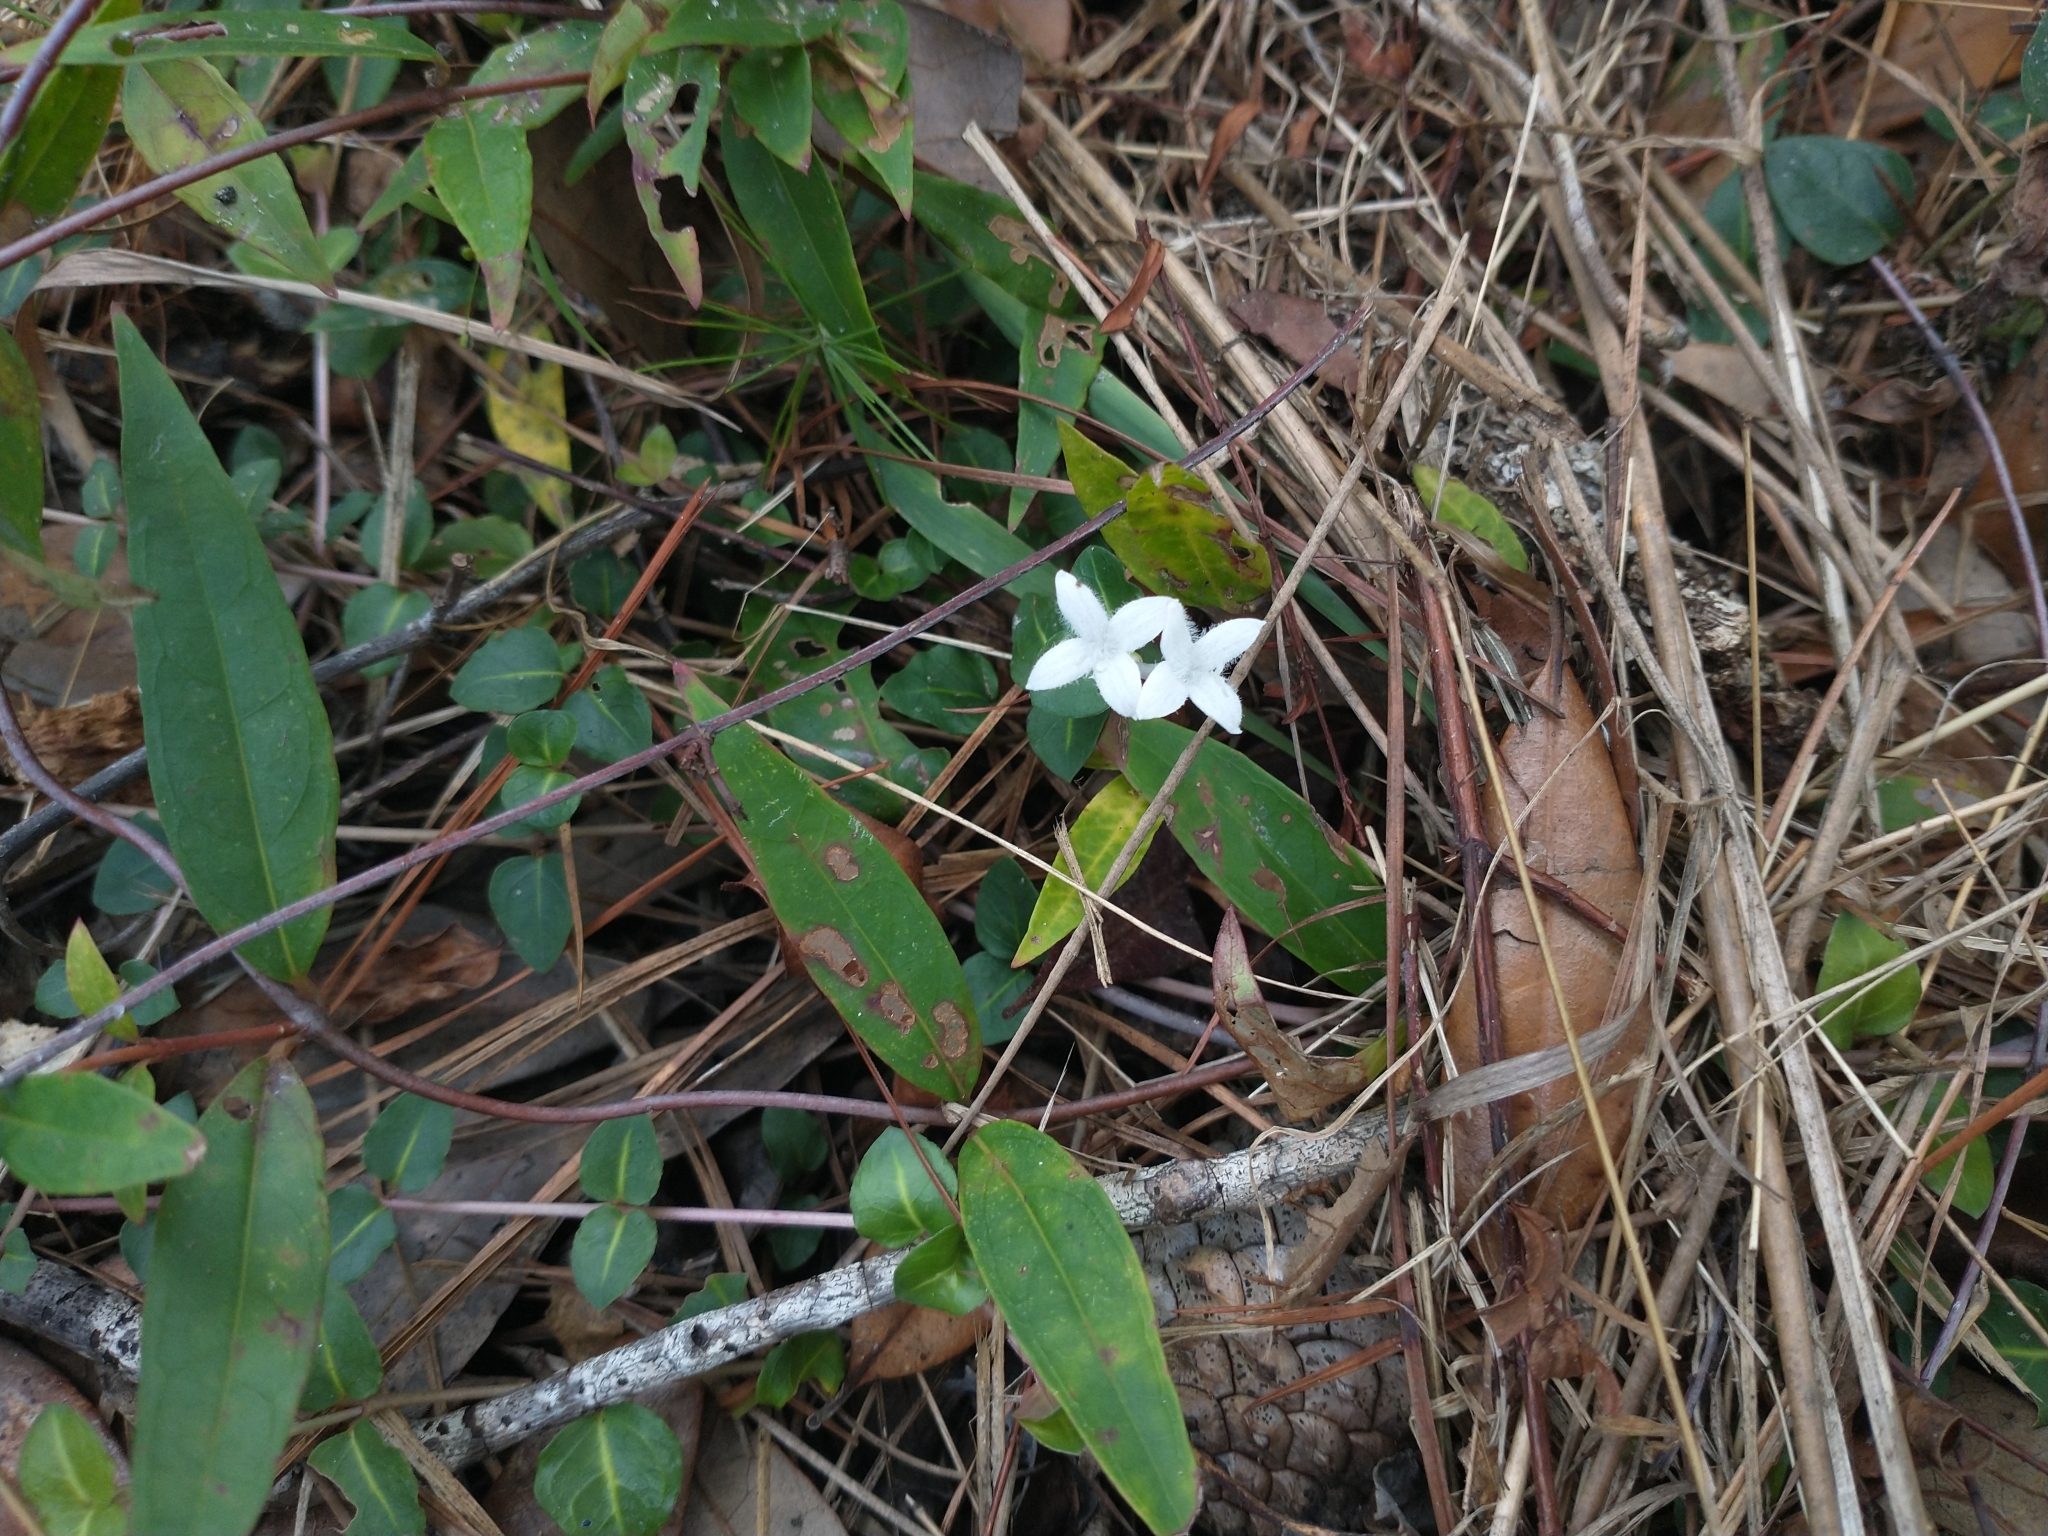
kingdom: Plantae
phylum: Tracheophyta
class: Magnoliopsida
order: Gentianales
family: Rubiaceae
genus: Diodia
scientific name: Diodia virginiana
